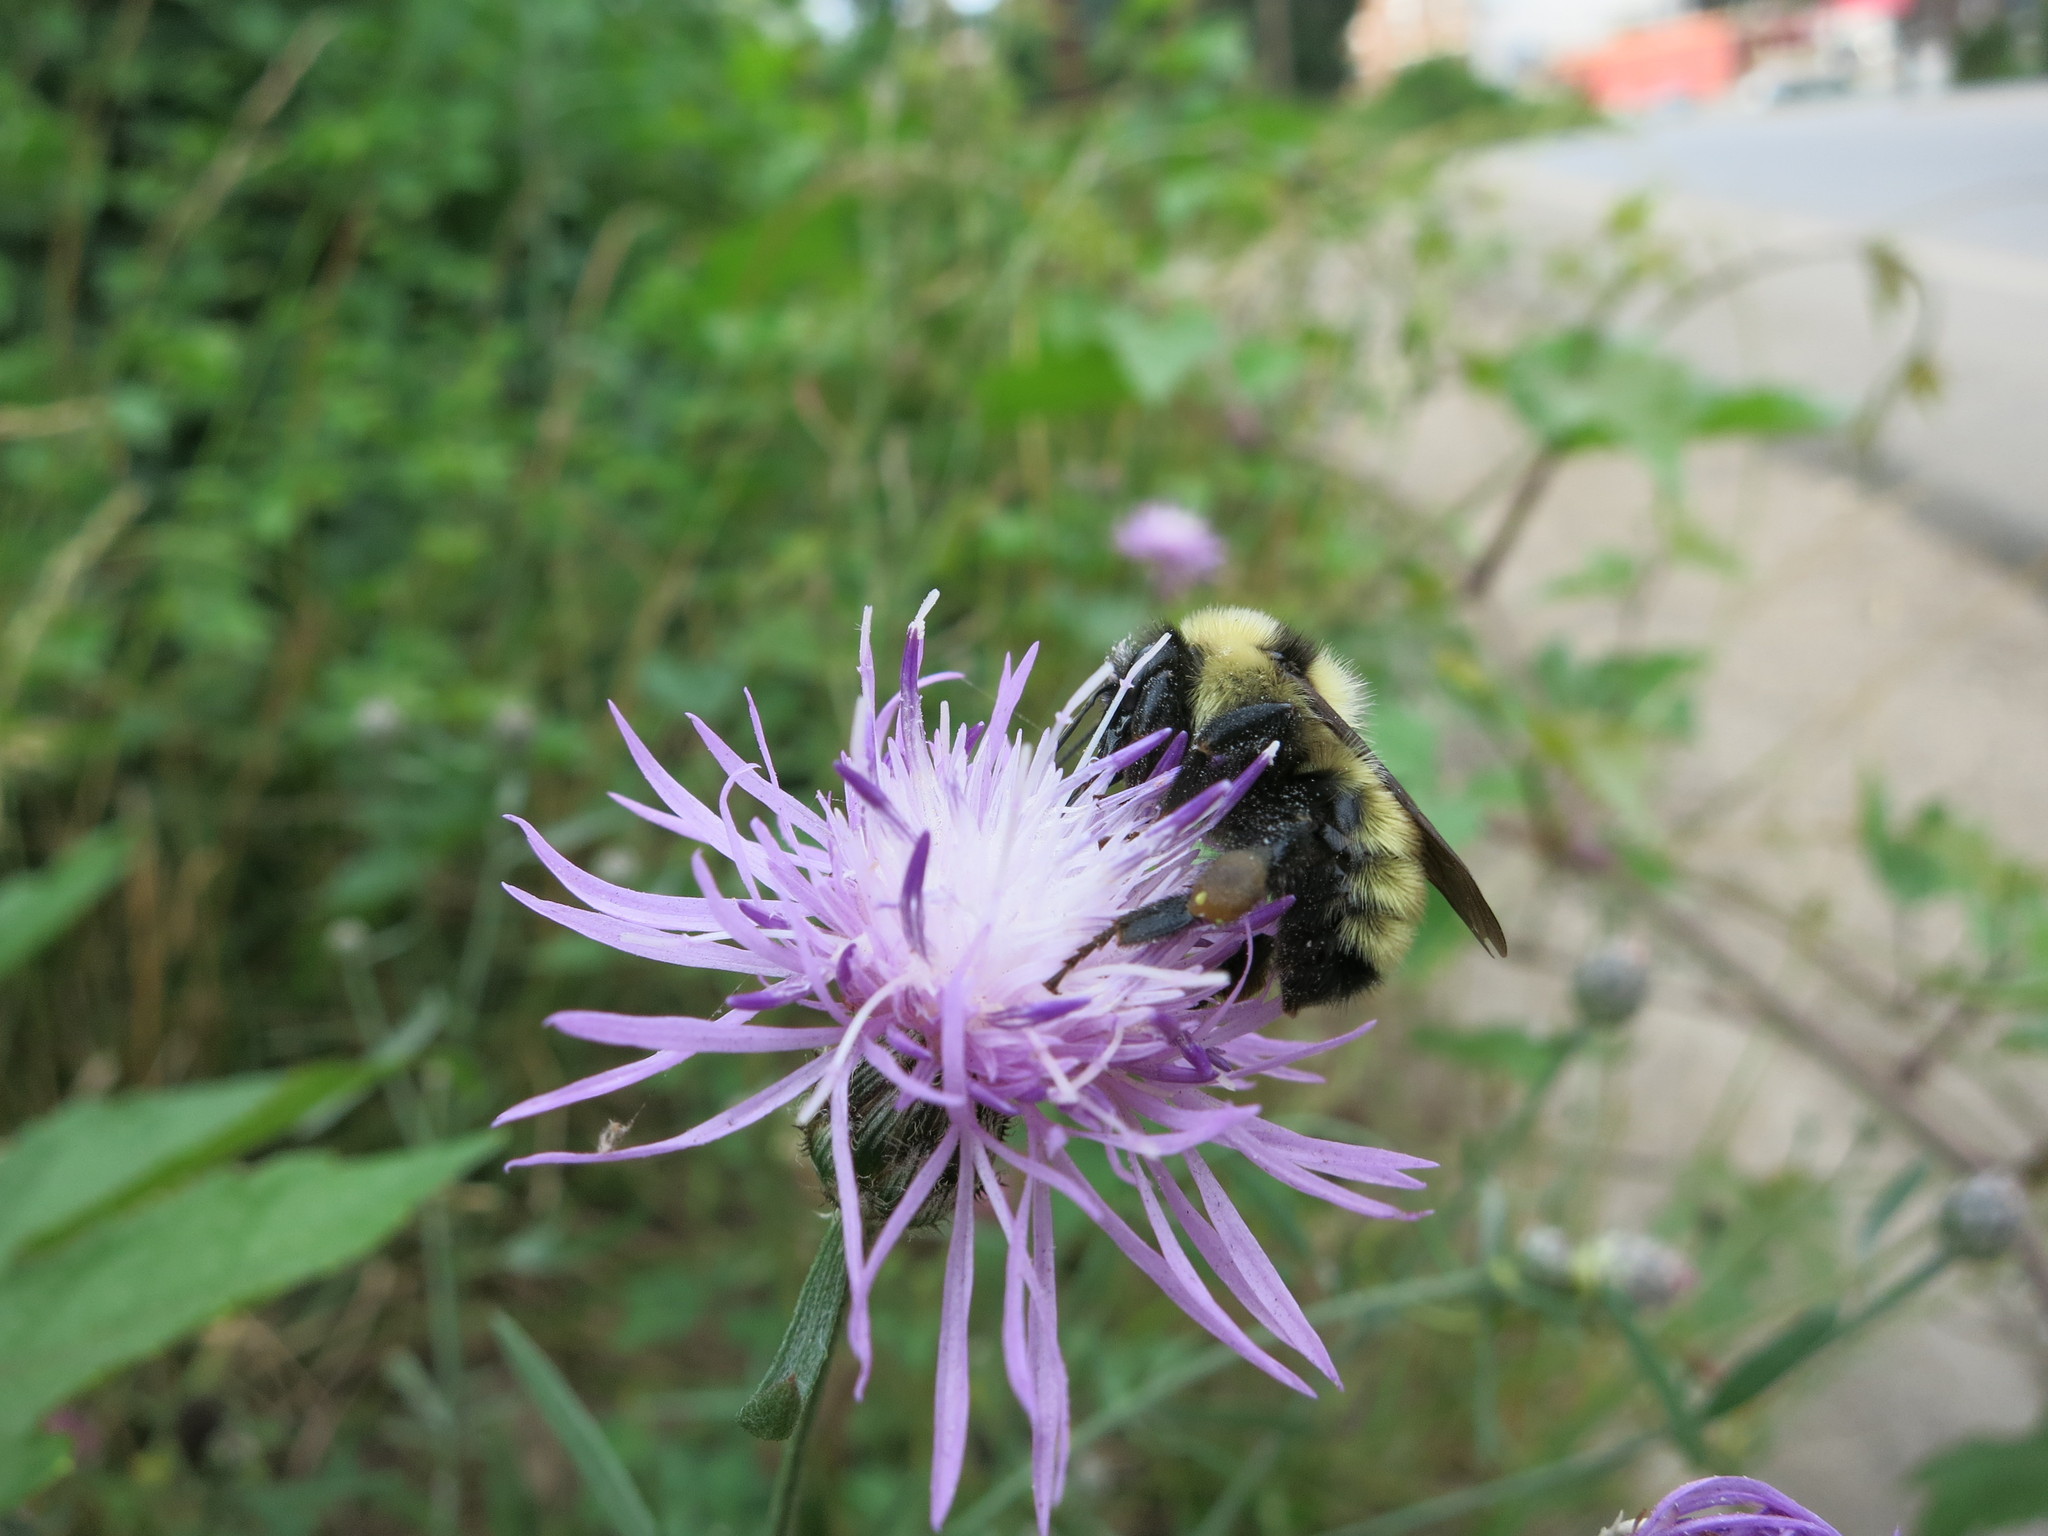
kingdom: Animalia
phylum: Arthropoda
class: Insecta
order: Hymenoptera
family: Apidae
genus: Bombus
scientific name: Bombus fervidus
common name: Yellow bumble bee
